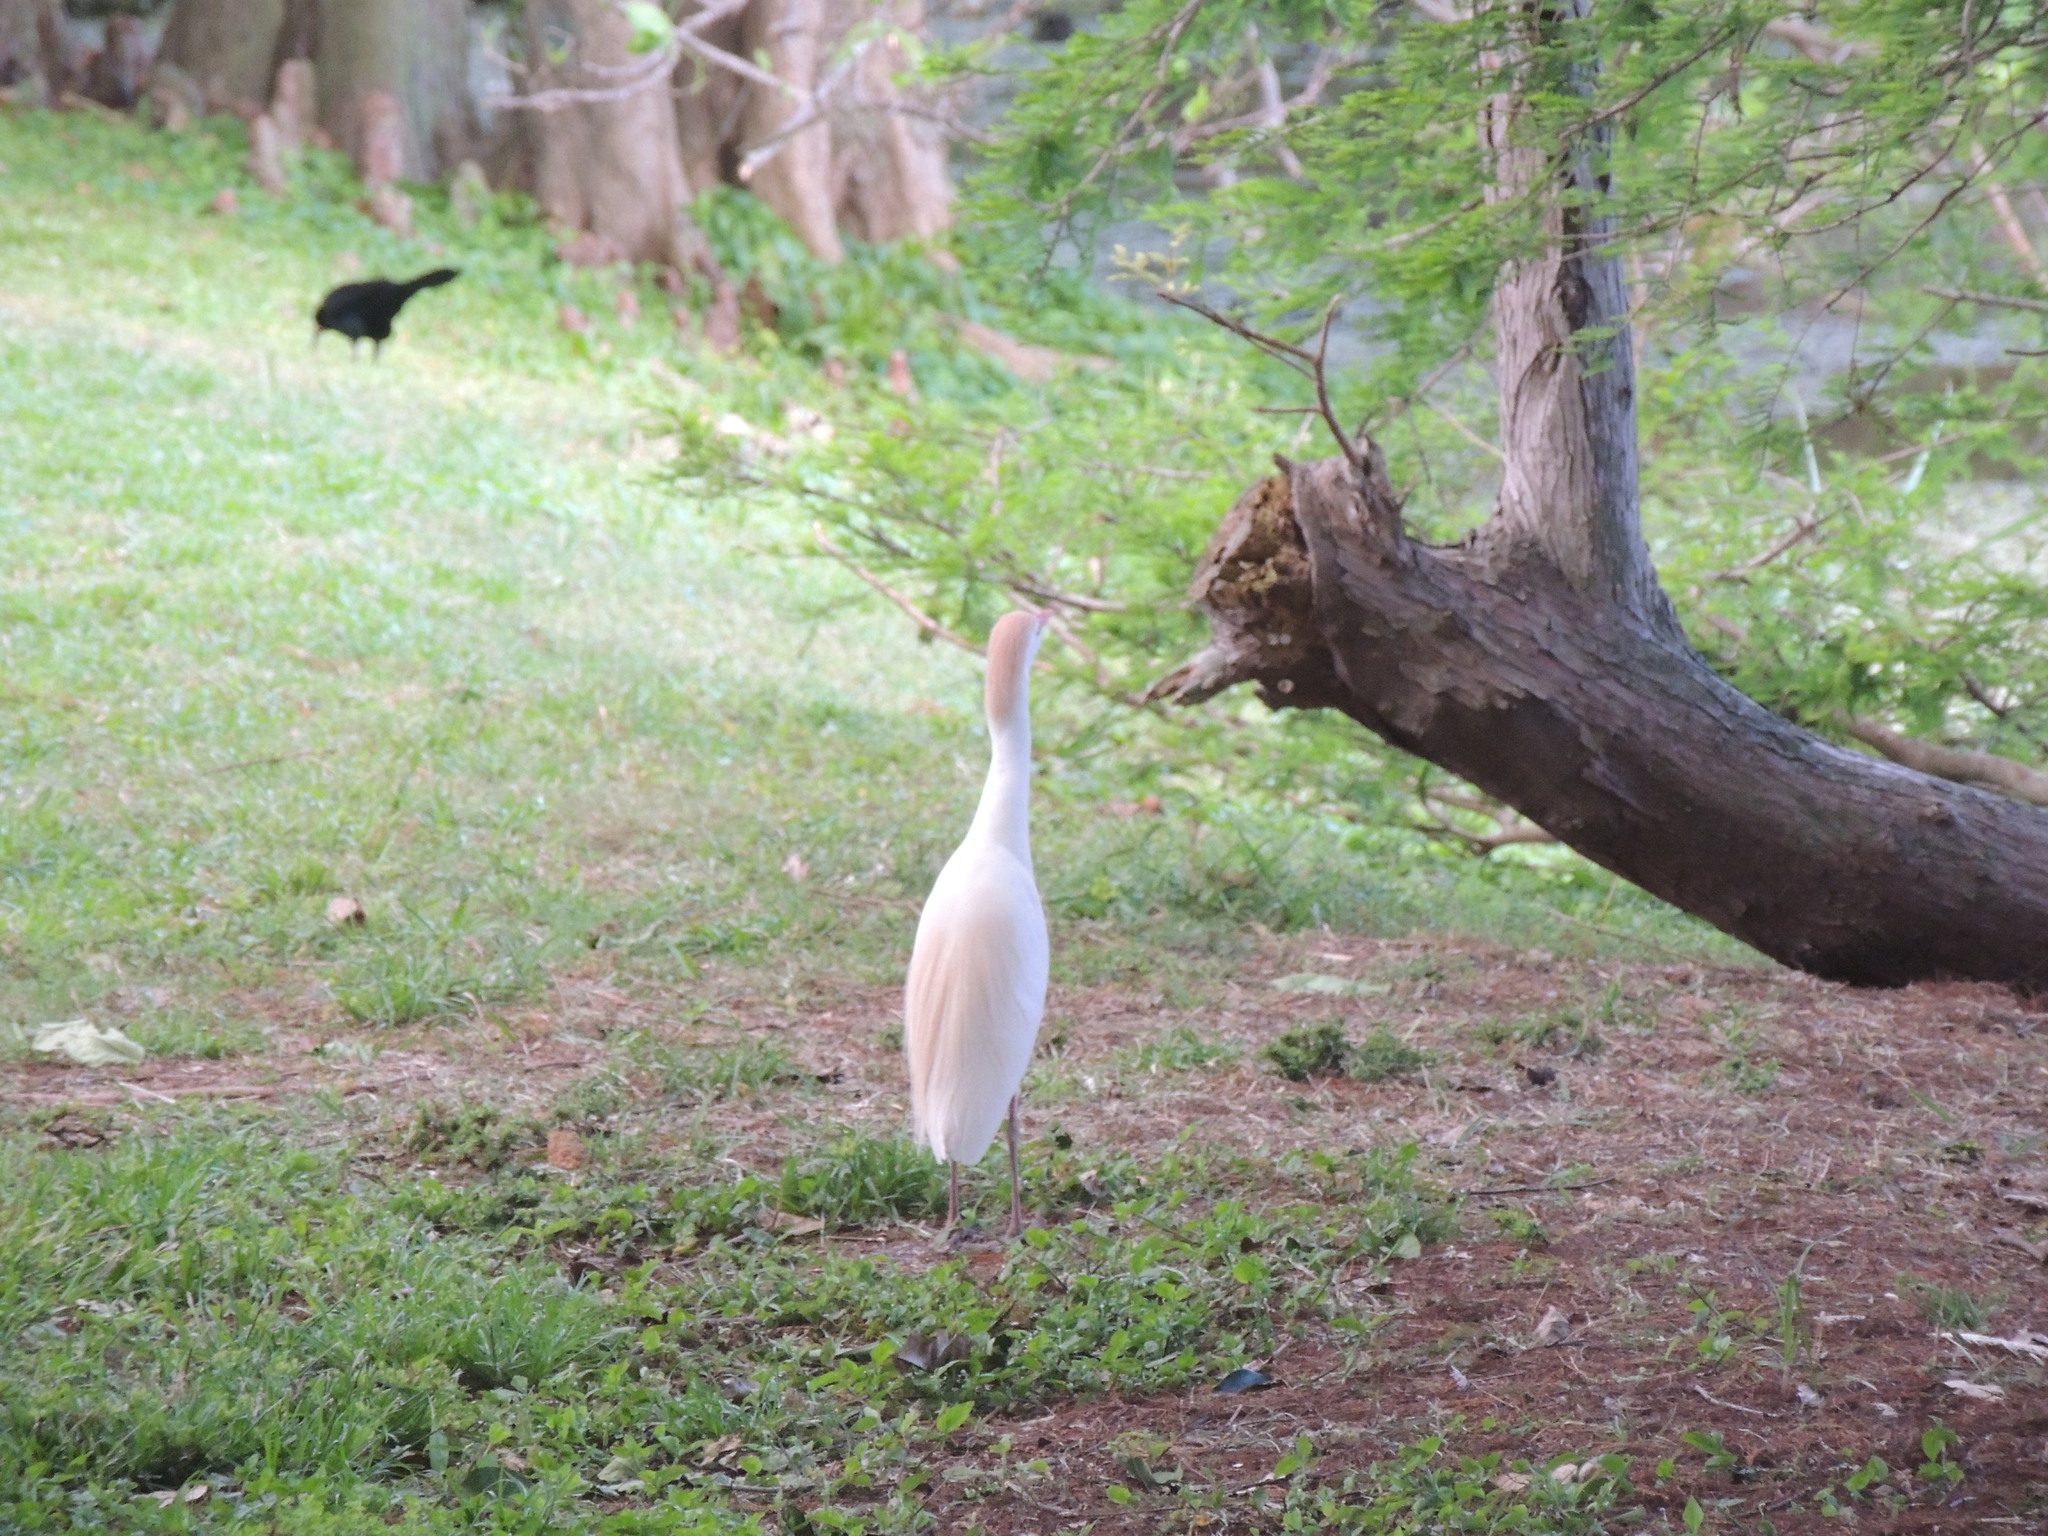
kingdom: Animalia
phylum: Chordata
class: Aves
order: Pelecaniformes
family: Ardeidae
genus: Bubulcus
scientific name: Bubulcus ibis
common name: Cattle egret
